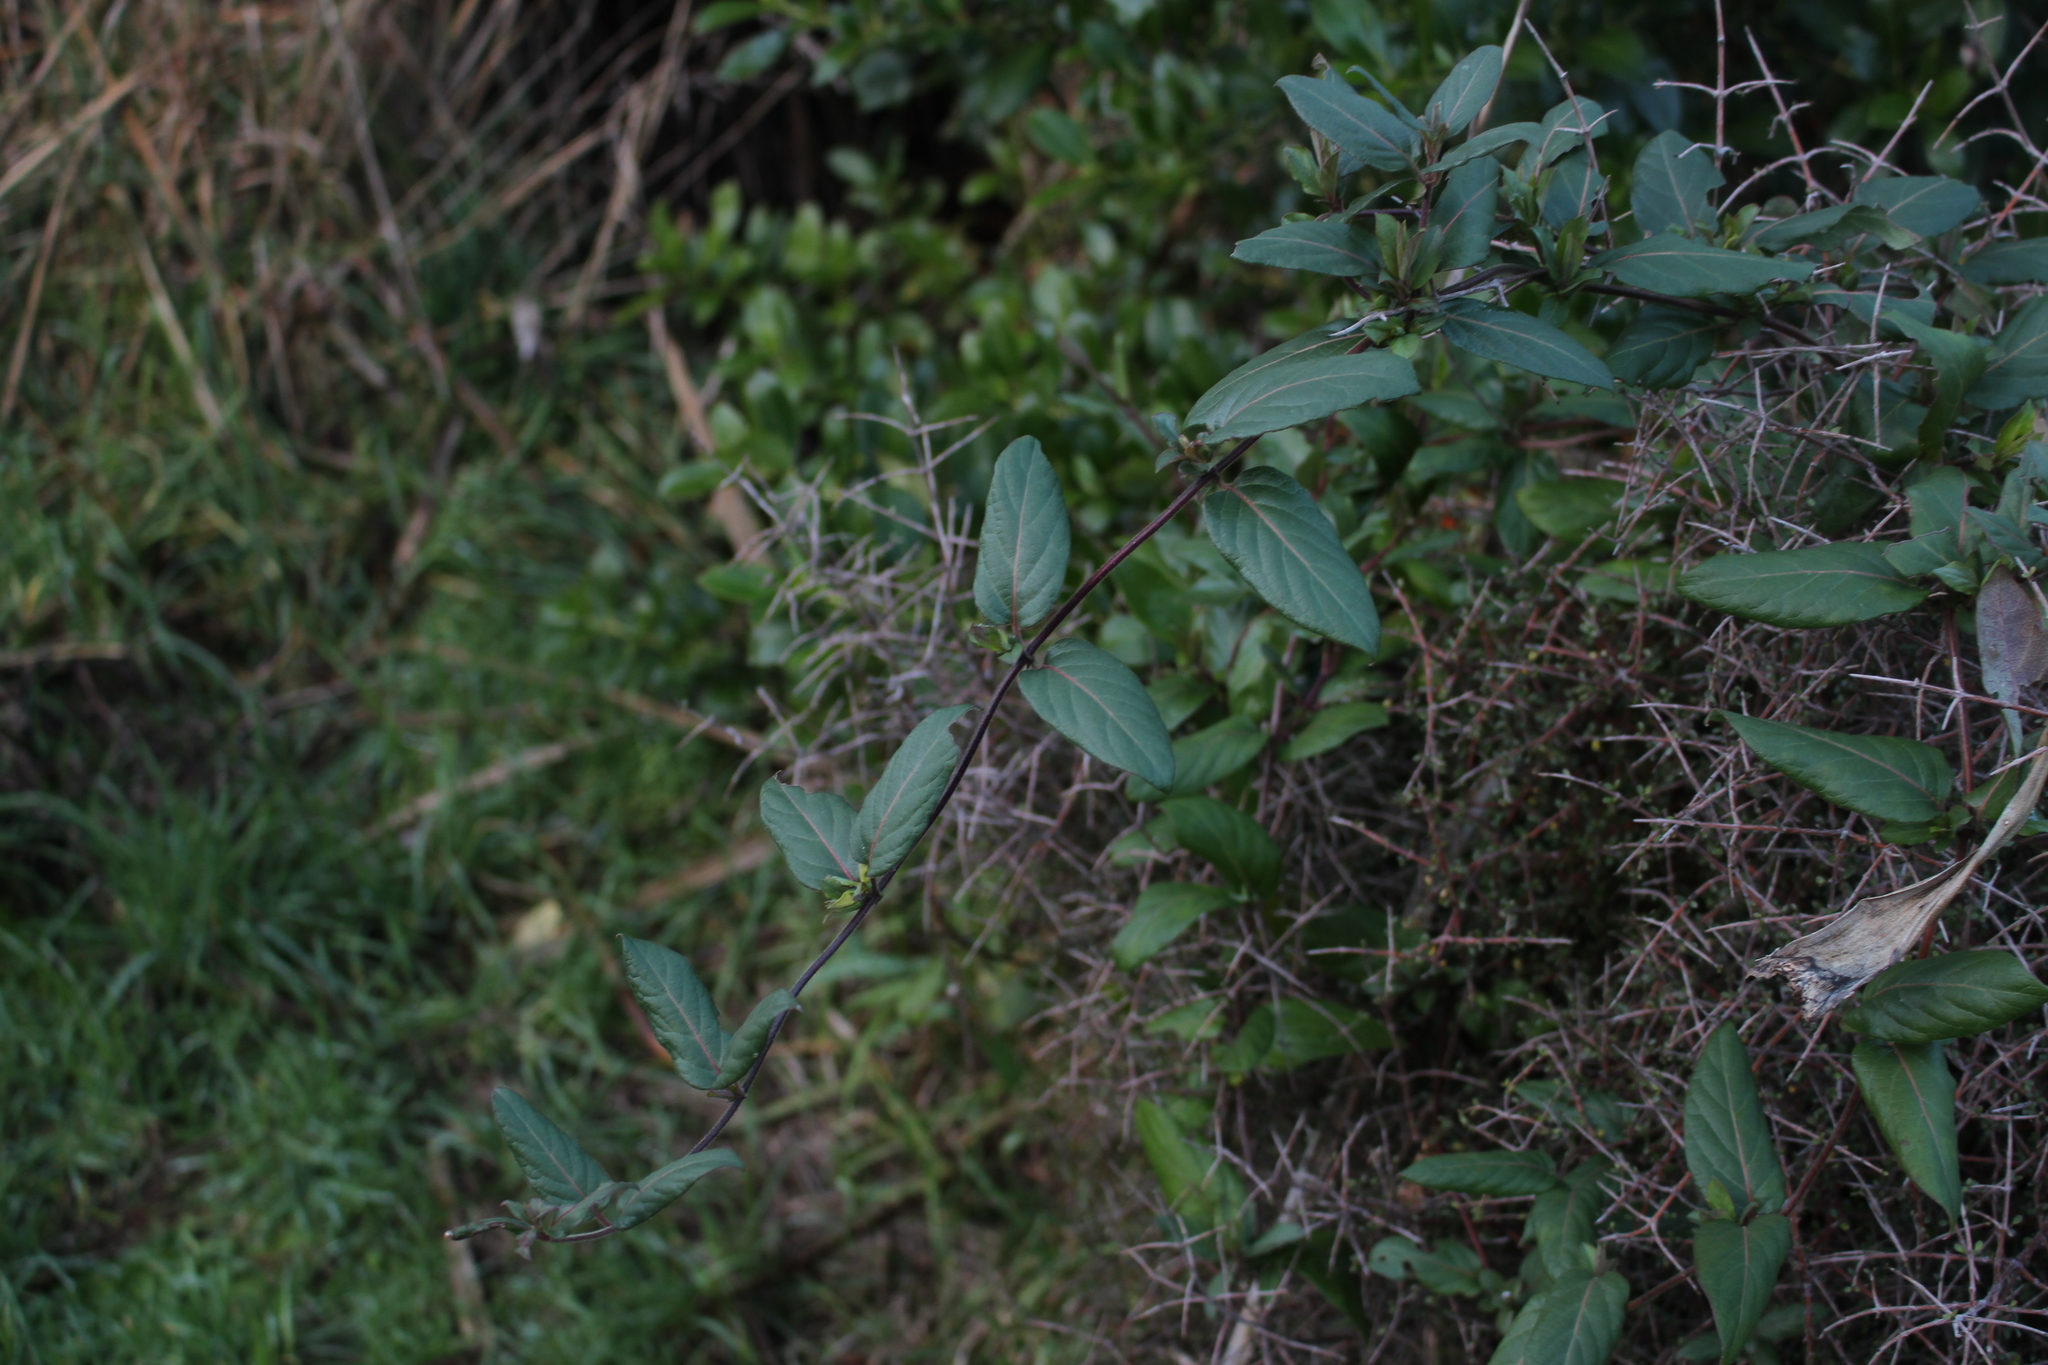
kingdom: Plantae
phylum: Tracheophyta
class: Magnoliopsida
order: Dipsacales
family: Caprifoliaceae
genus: Lonicera
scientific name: Lonicera japonica
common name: Japanese honeysuckle
